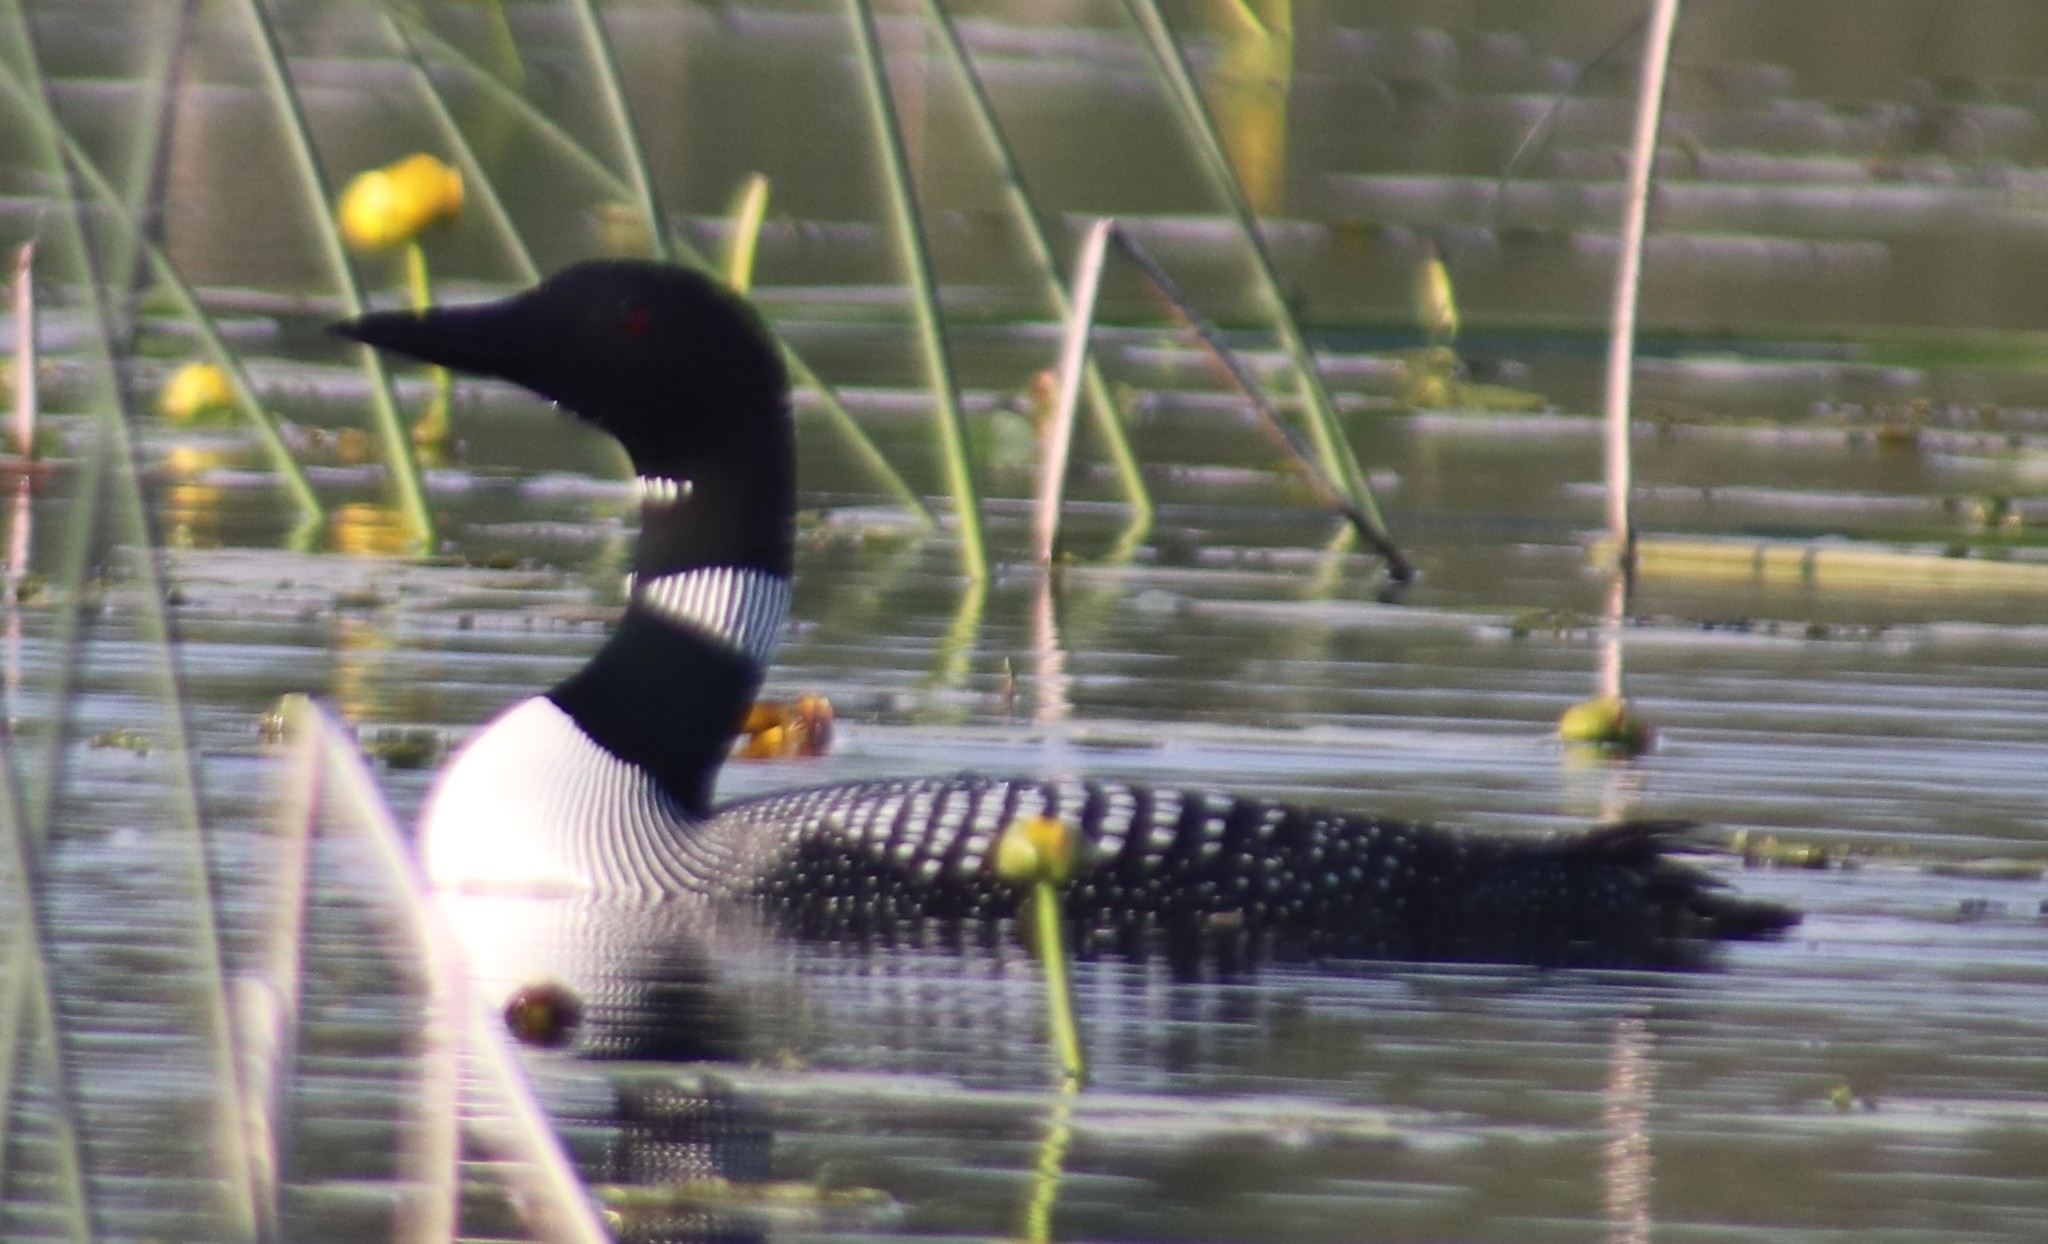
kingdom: Animalia
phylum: Chordata
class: Aves
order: Gaviiformes
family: Gaviidae
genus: Gavia
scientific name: Gavia immer
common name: Common loon
